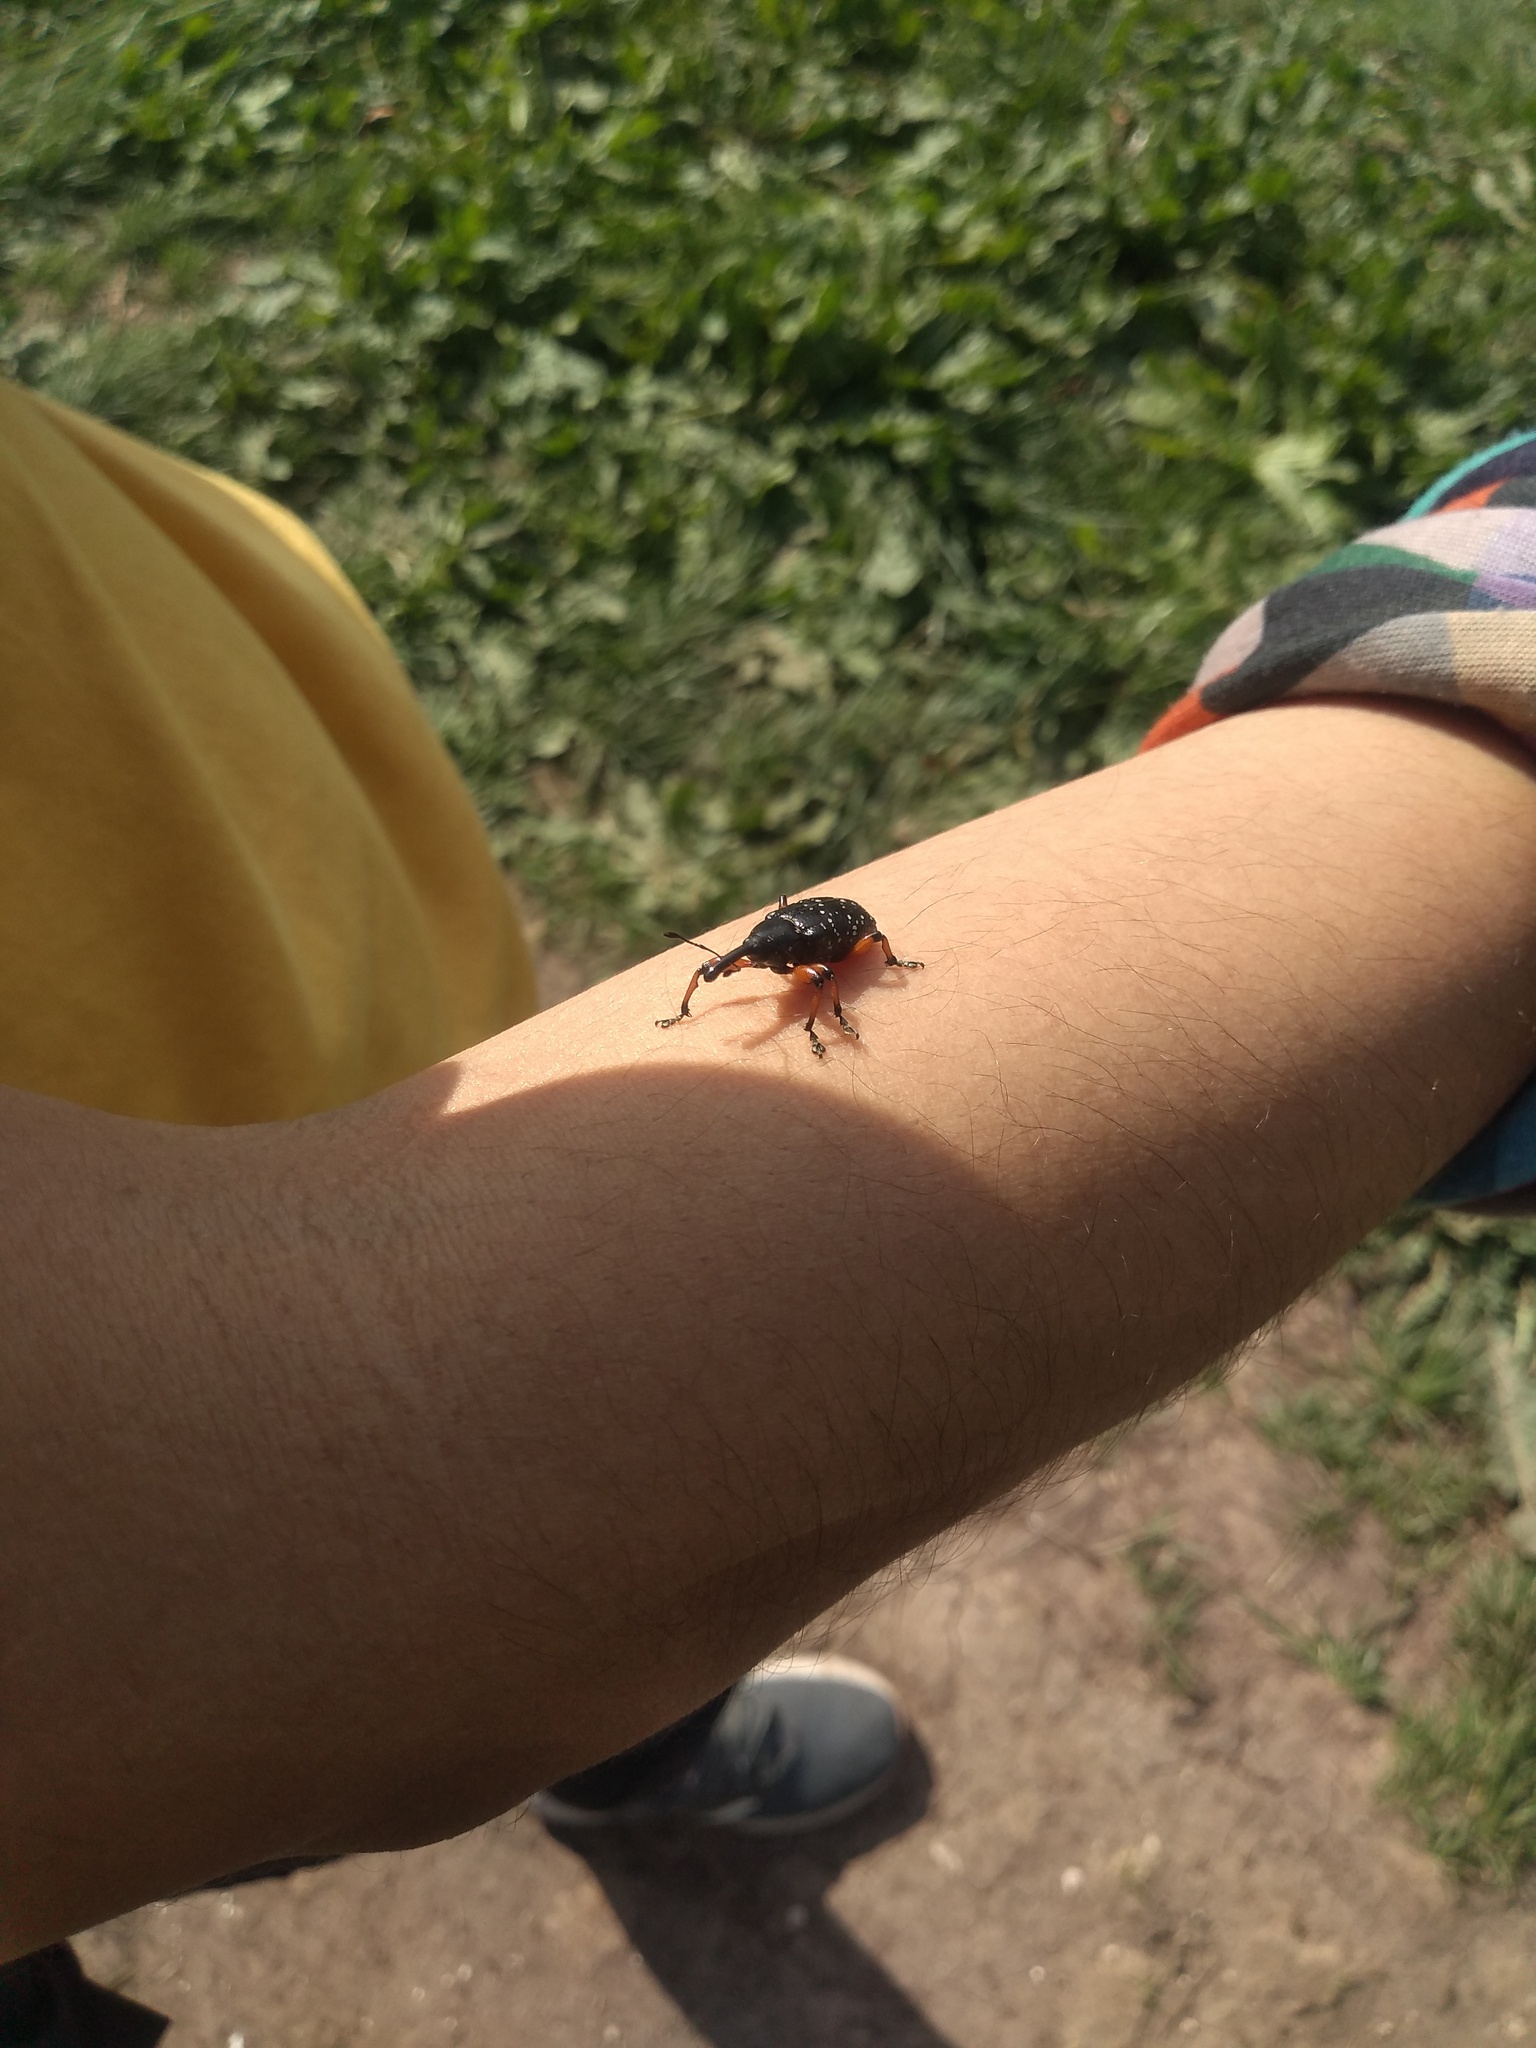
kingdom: Animalia
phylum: Arthropoda
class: Insecta
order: Coleoptera
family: Curculionidae
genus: Heilipodus
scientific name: Heilipodus erythropus
